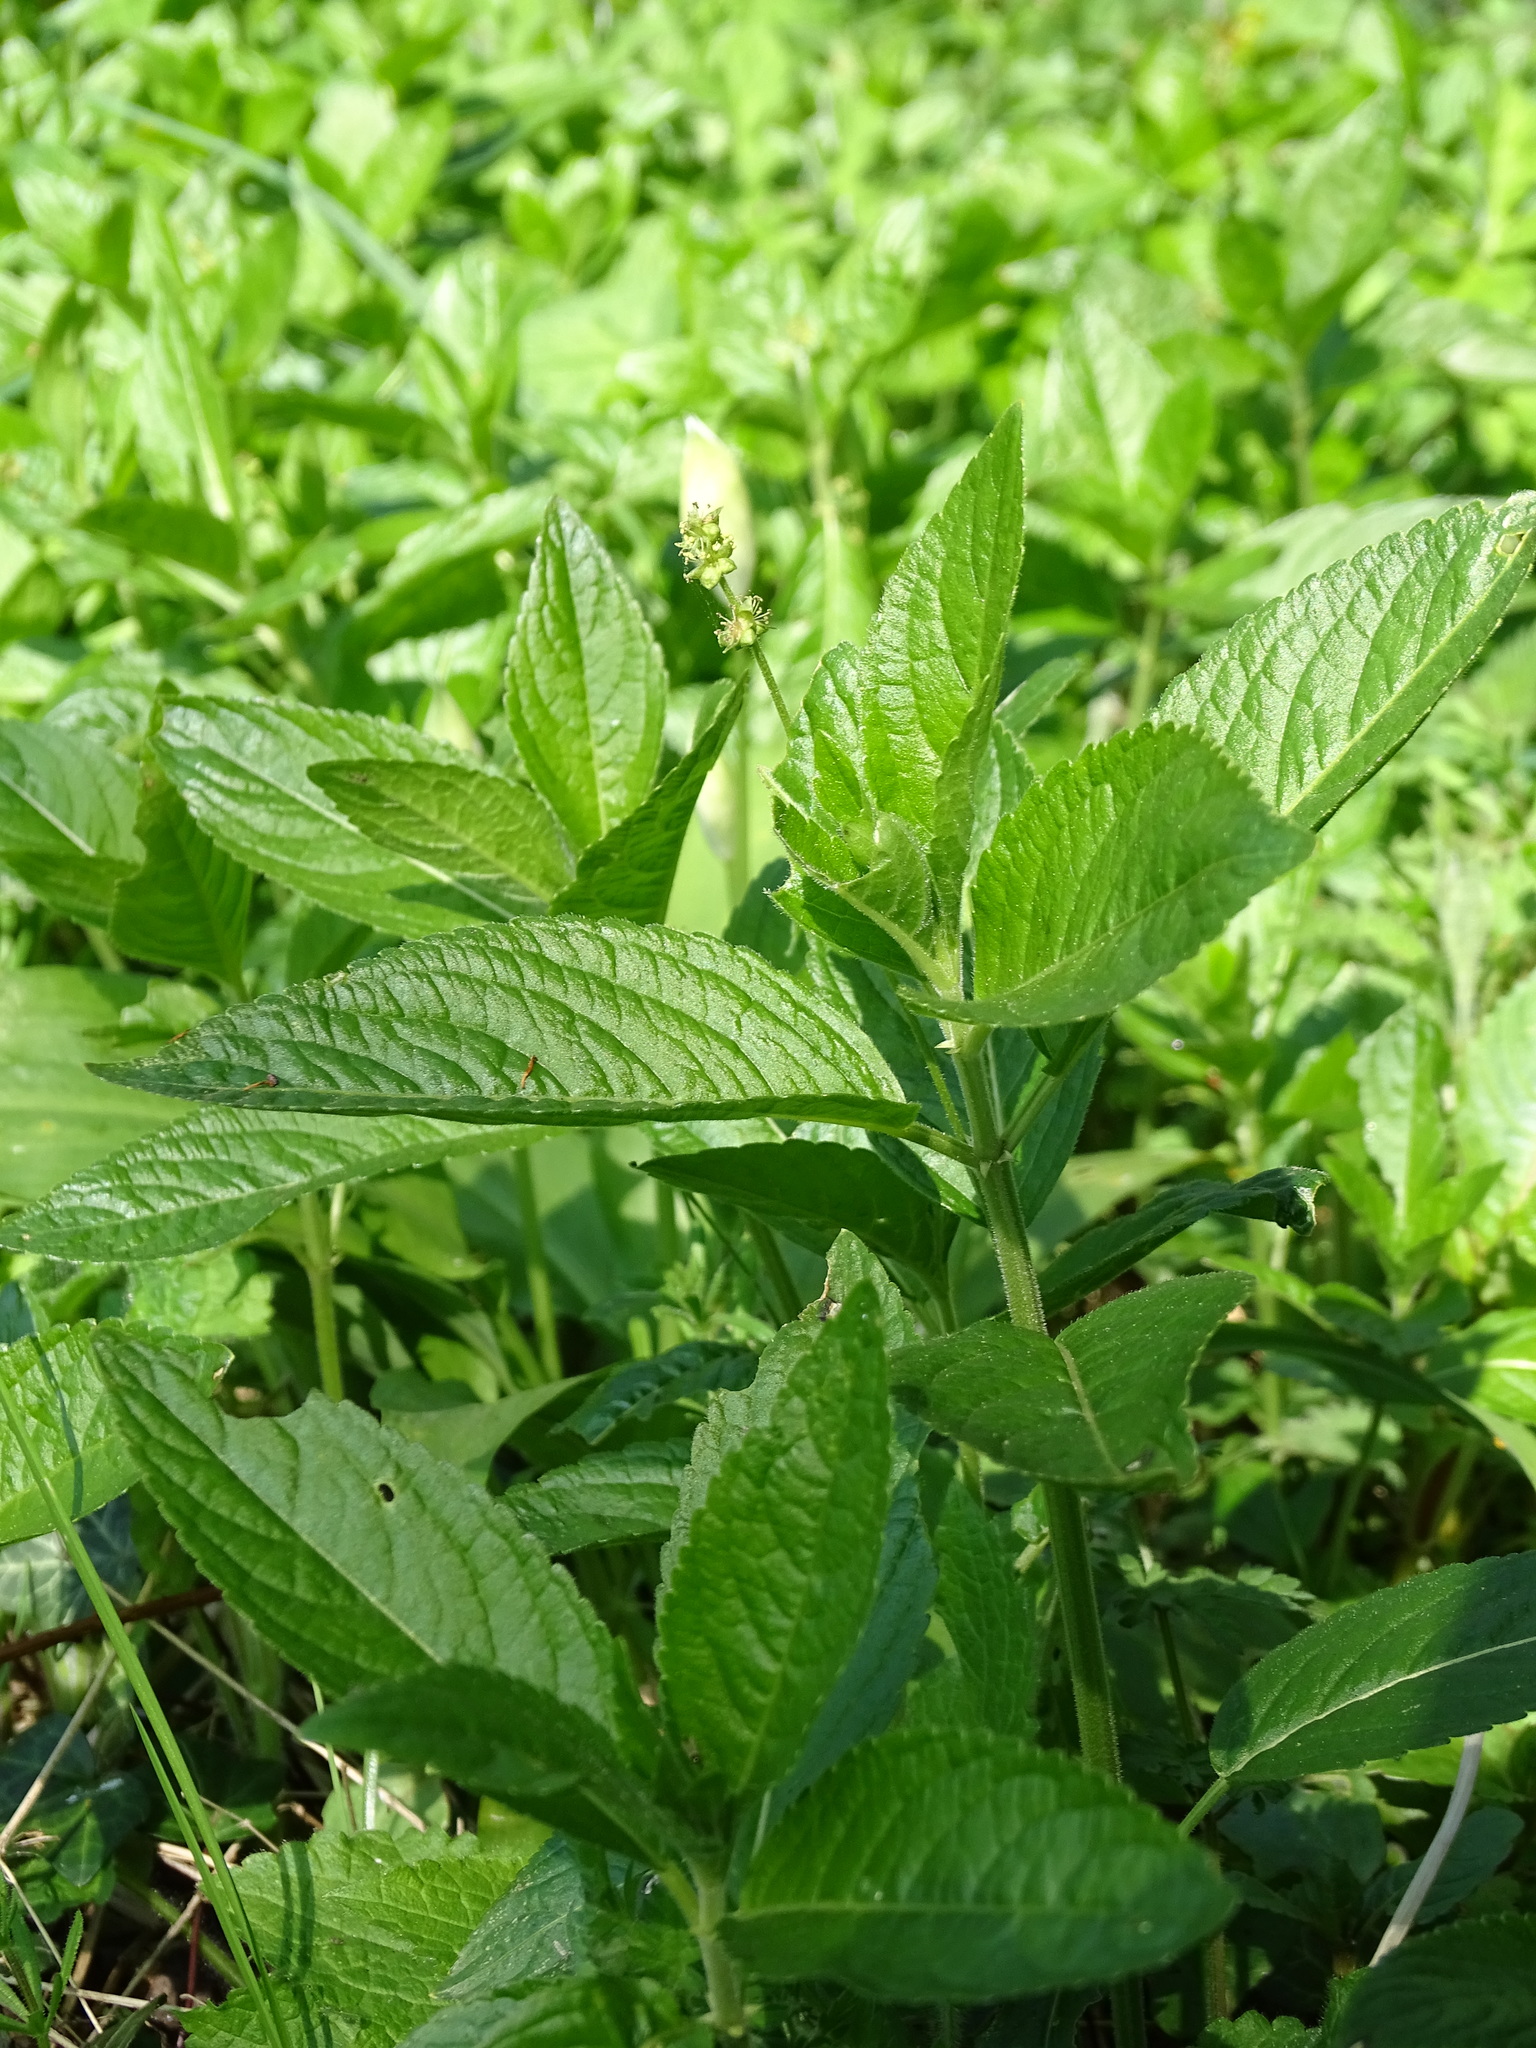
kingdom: Plantae
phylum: Tracheophyta
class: Magnoliopsida
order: Malpighiales
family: Euphorbiaceae
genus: Mercurialis
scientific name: Mercurialis perennis
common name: Dog mercury
